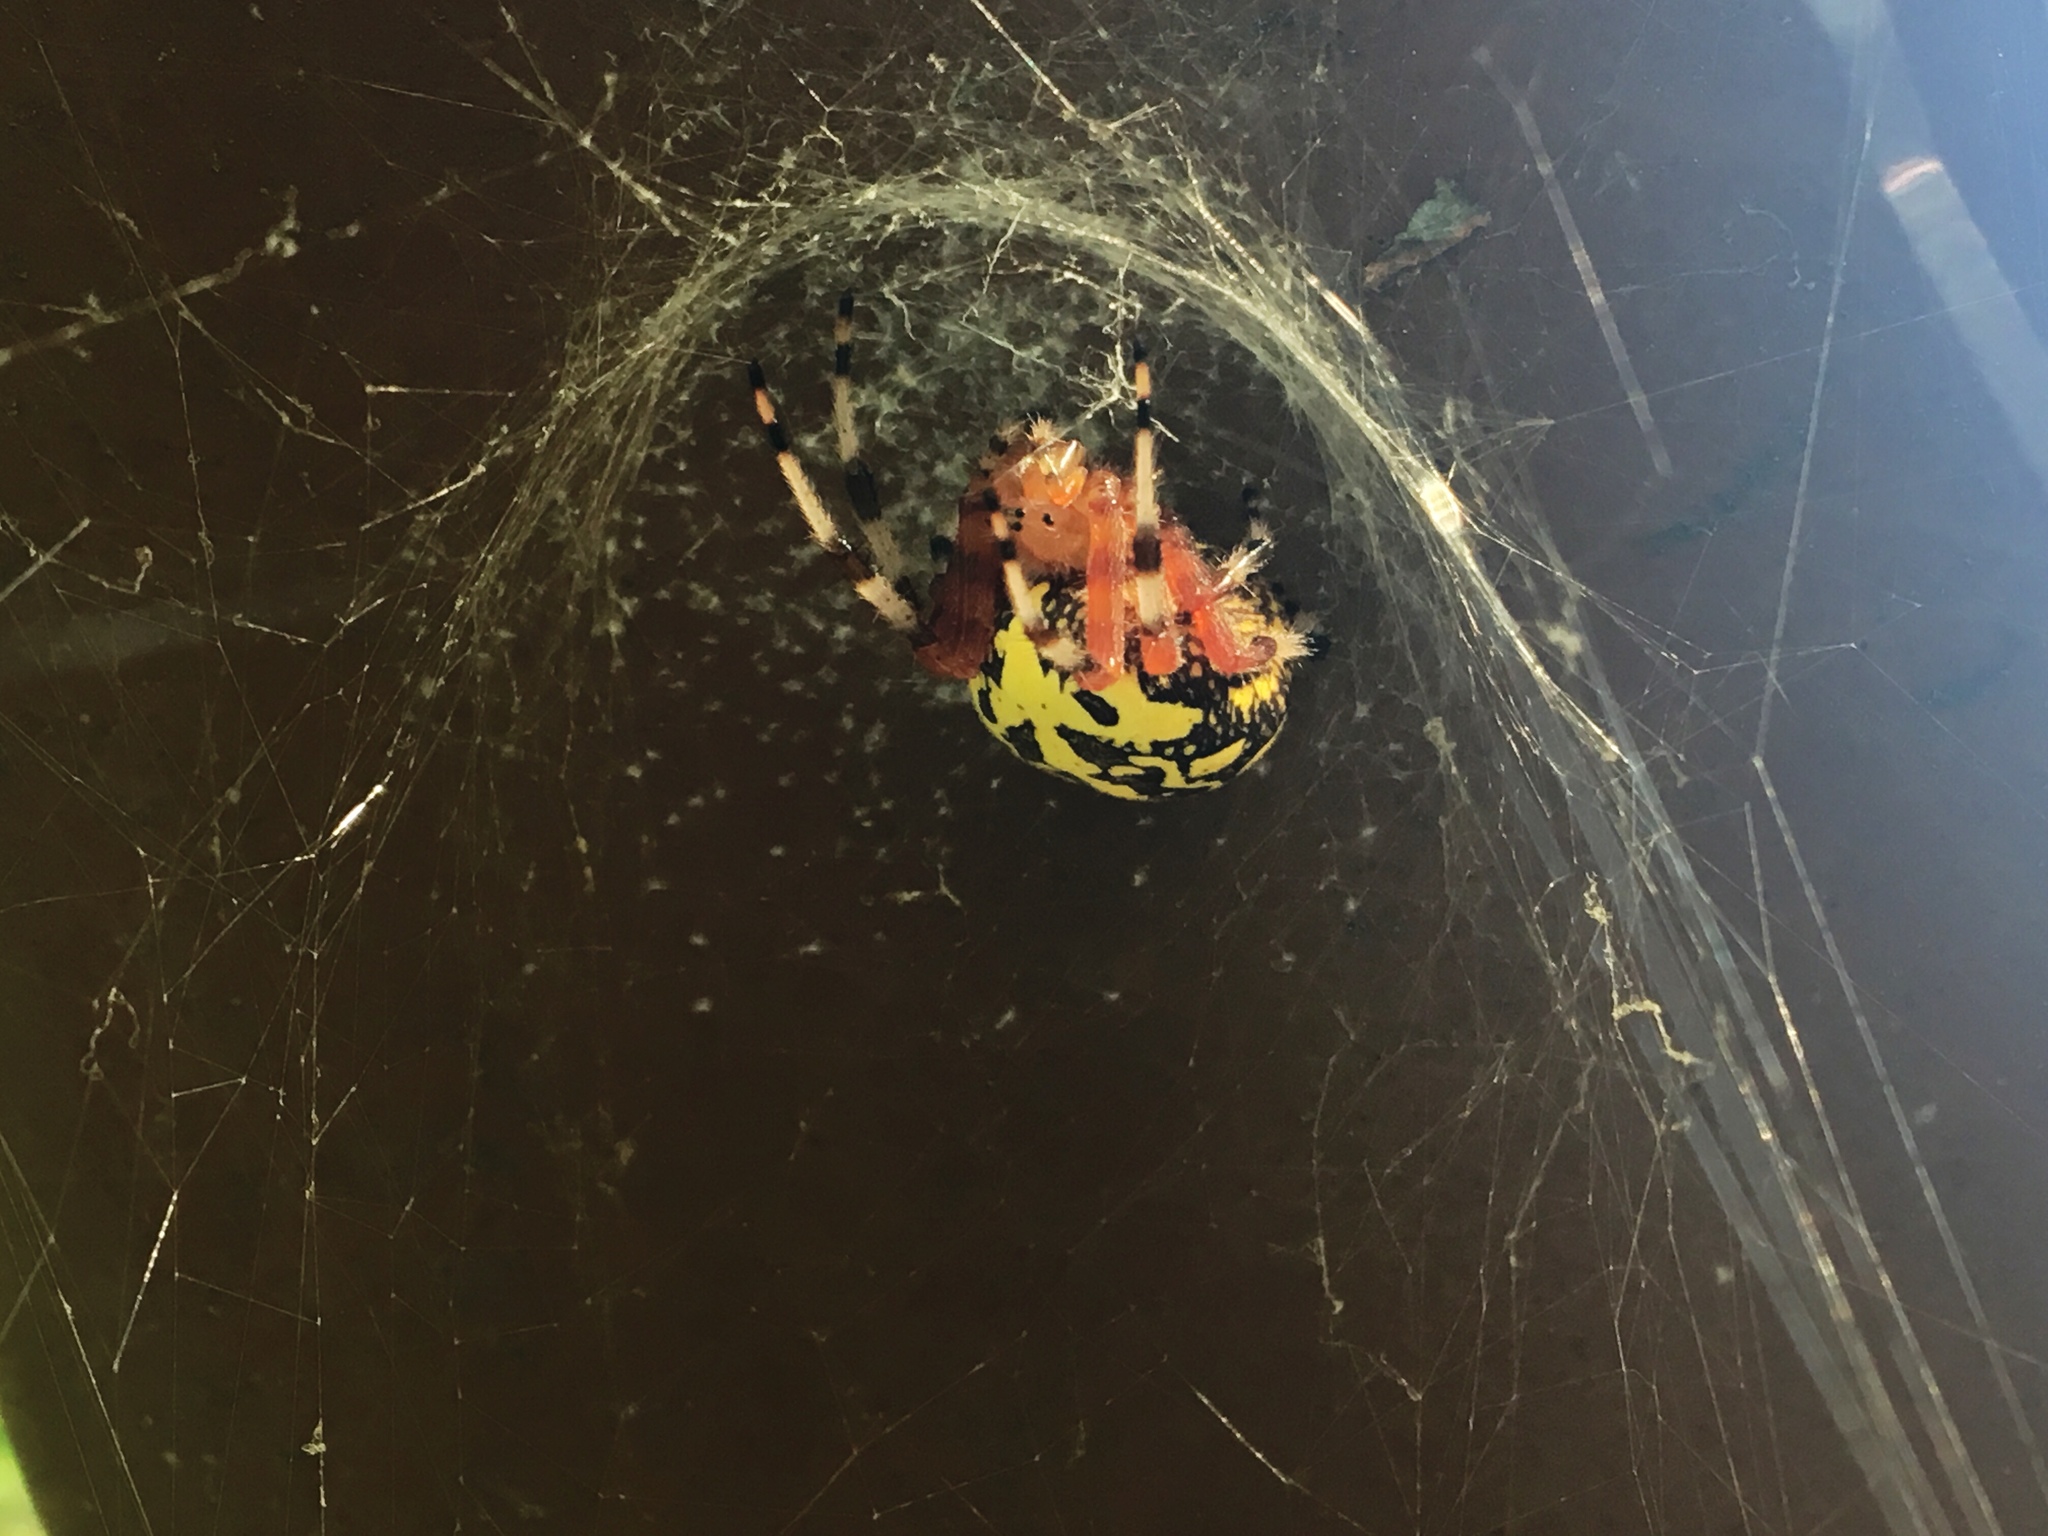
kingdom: Animalia
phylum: Arthropoda
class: Arachnida
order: Araneae
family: Araneidae
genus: Araneus
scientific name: Araneus marmoreus
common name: Marbled orbweaver
